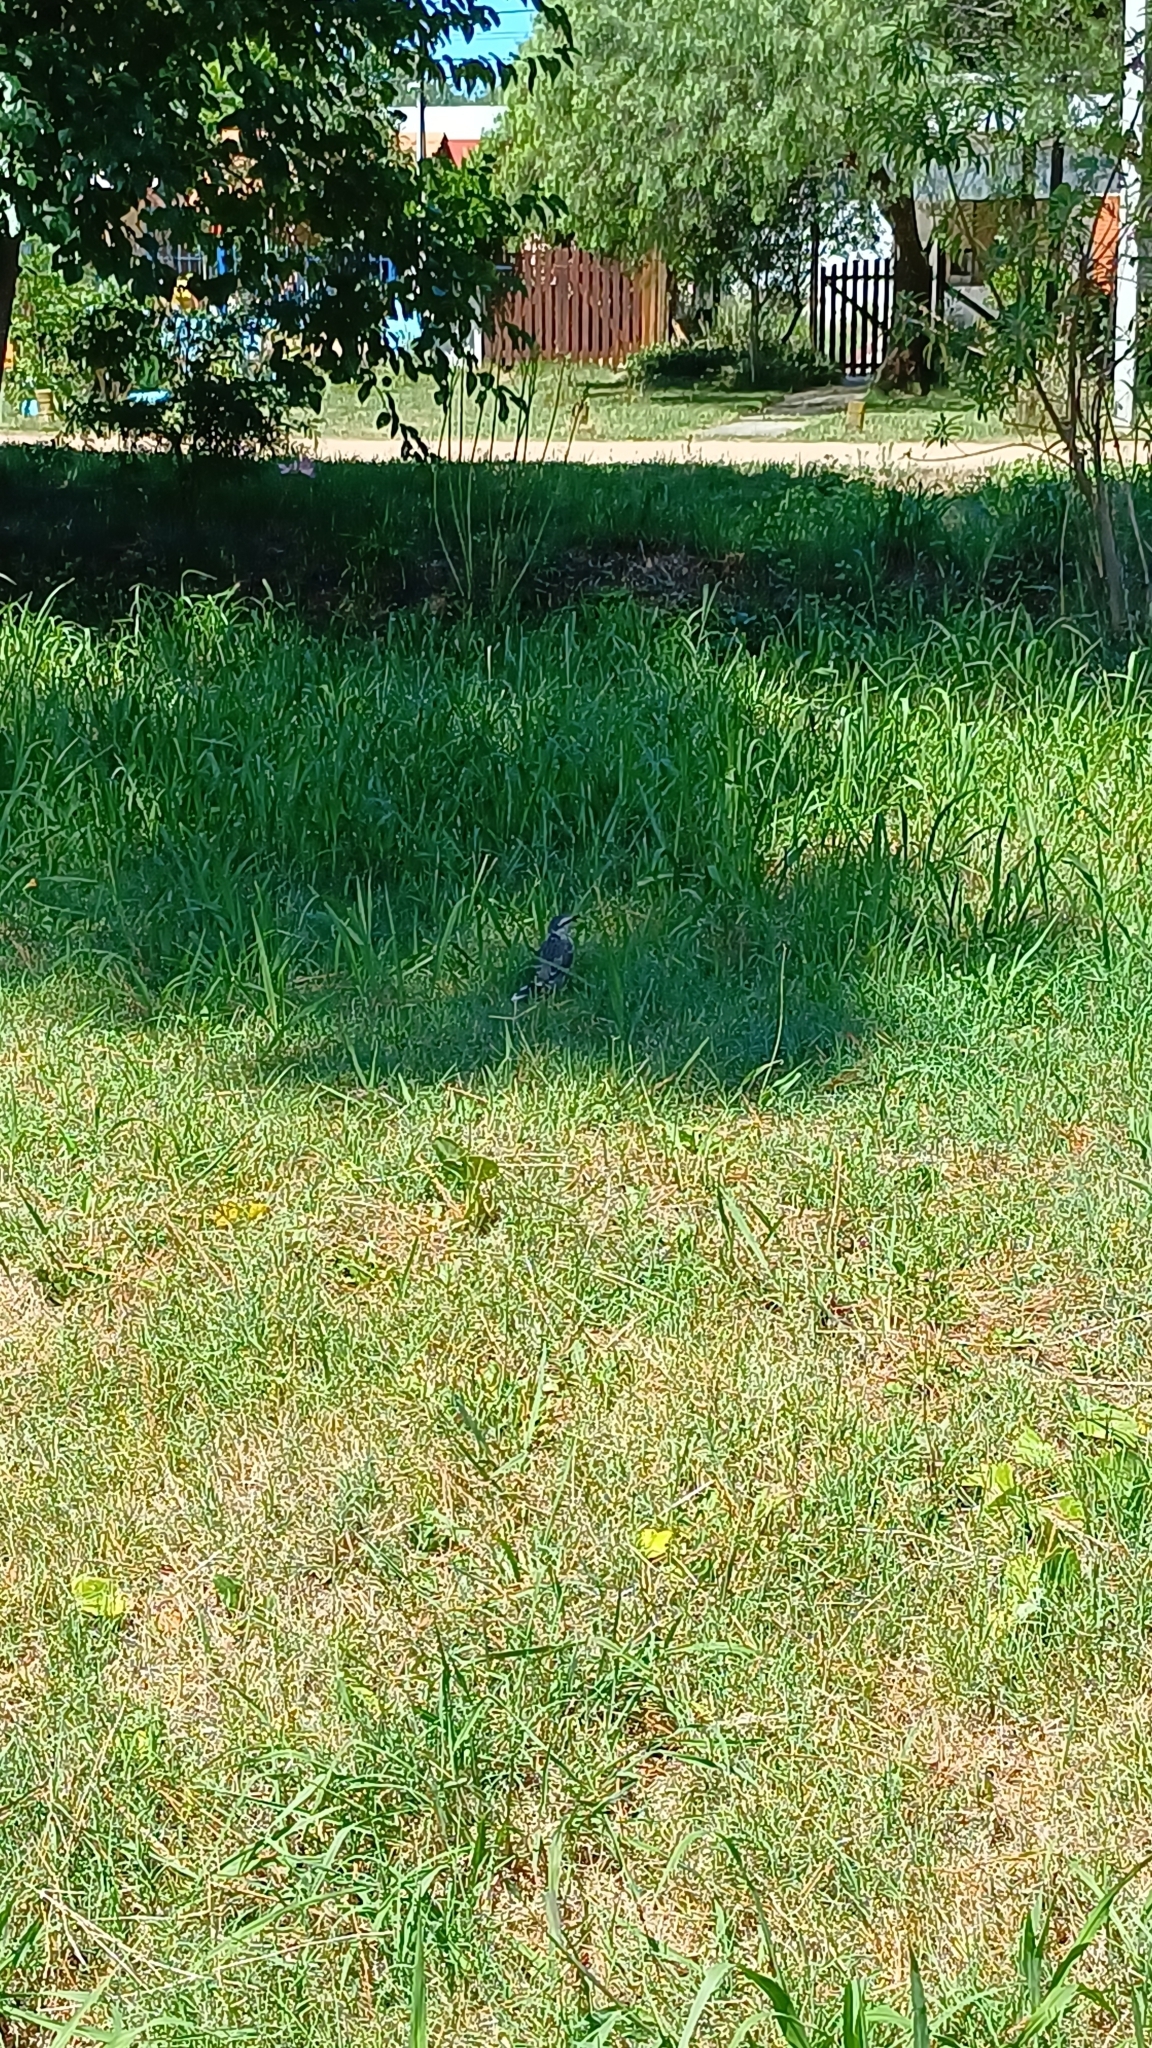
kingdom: Animalia
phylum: Chordata
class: Aves
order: Passeriformes
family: Mimidae
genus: Mimus
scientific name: Mimus saturninus
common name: Chalk-browed mockingbird
